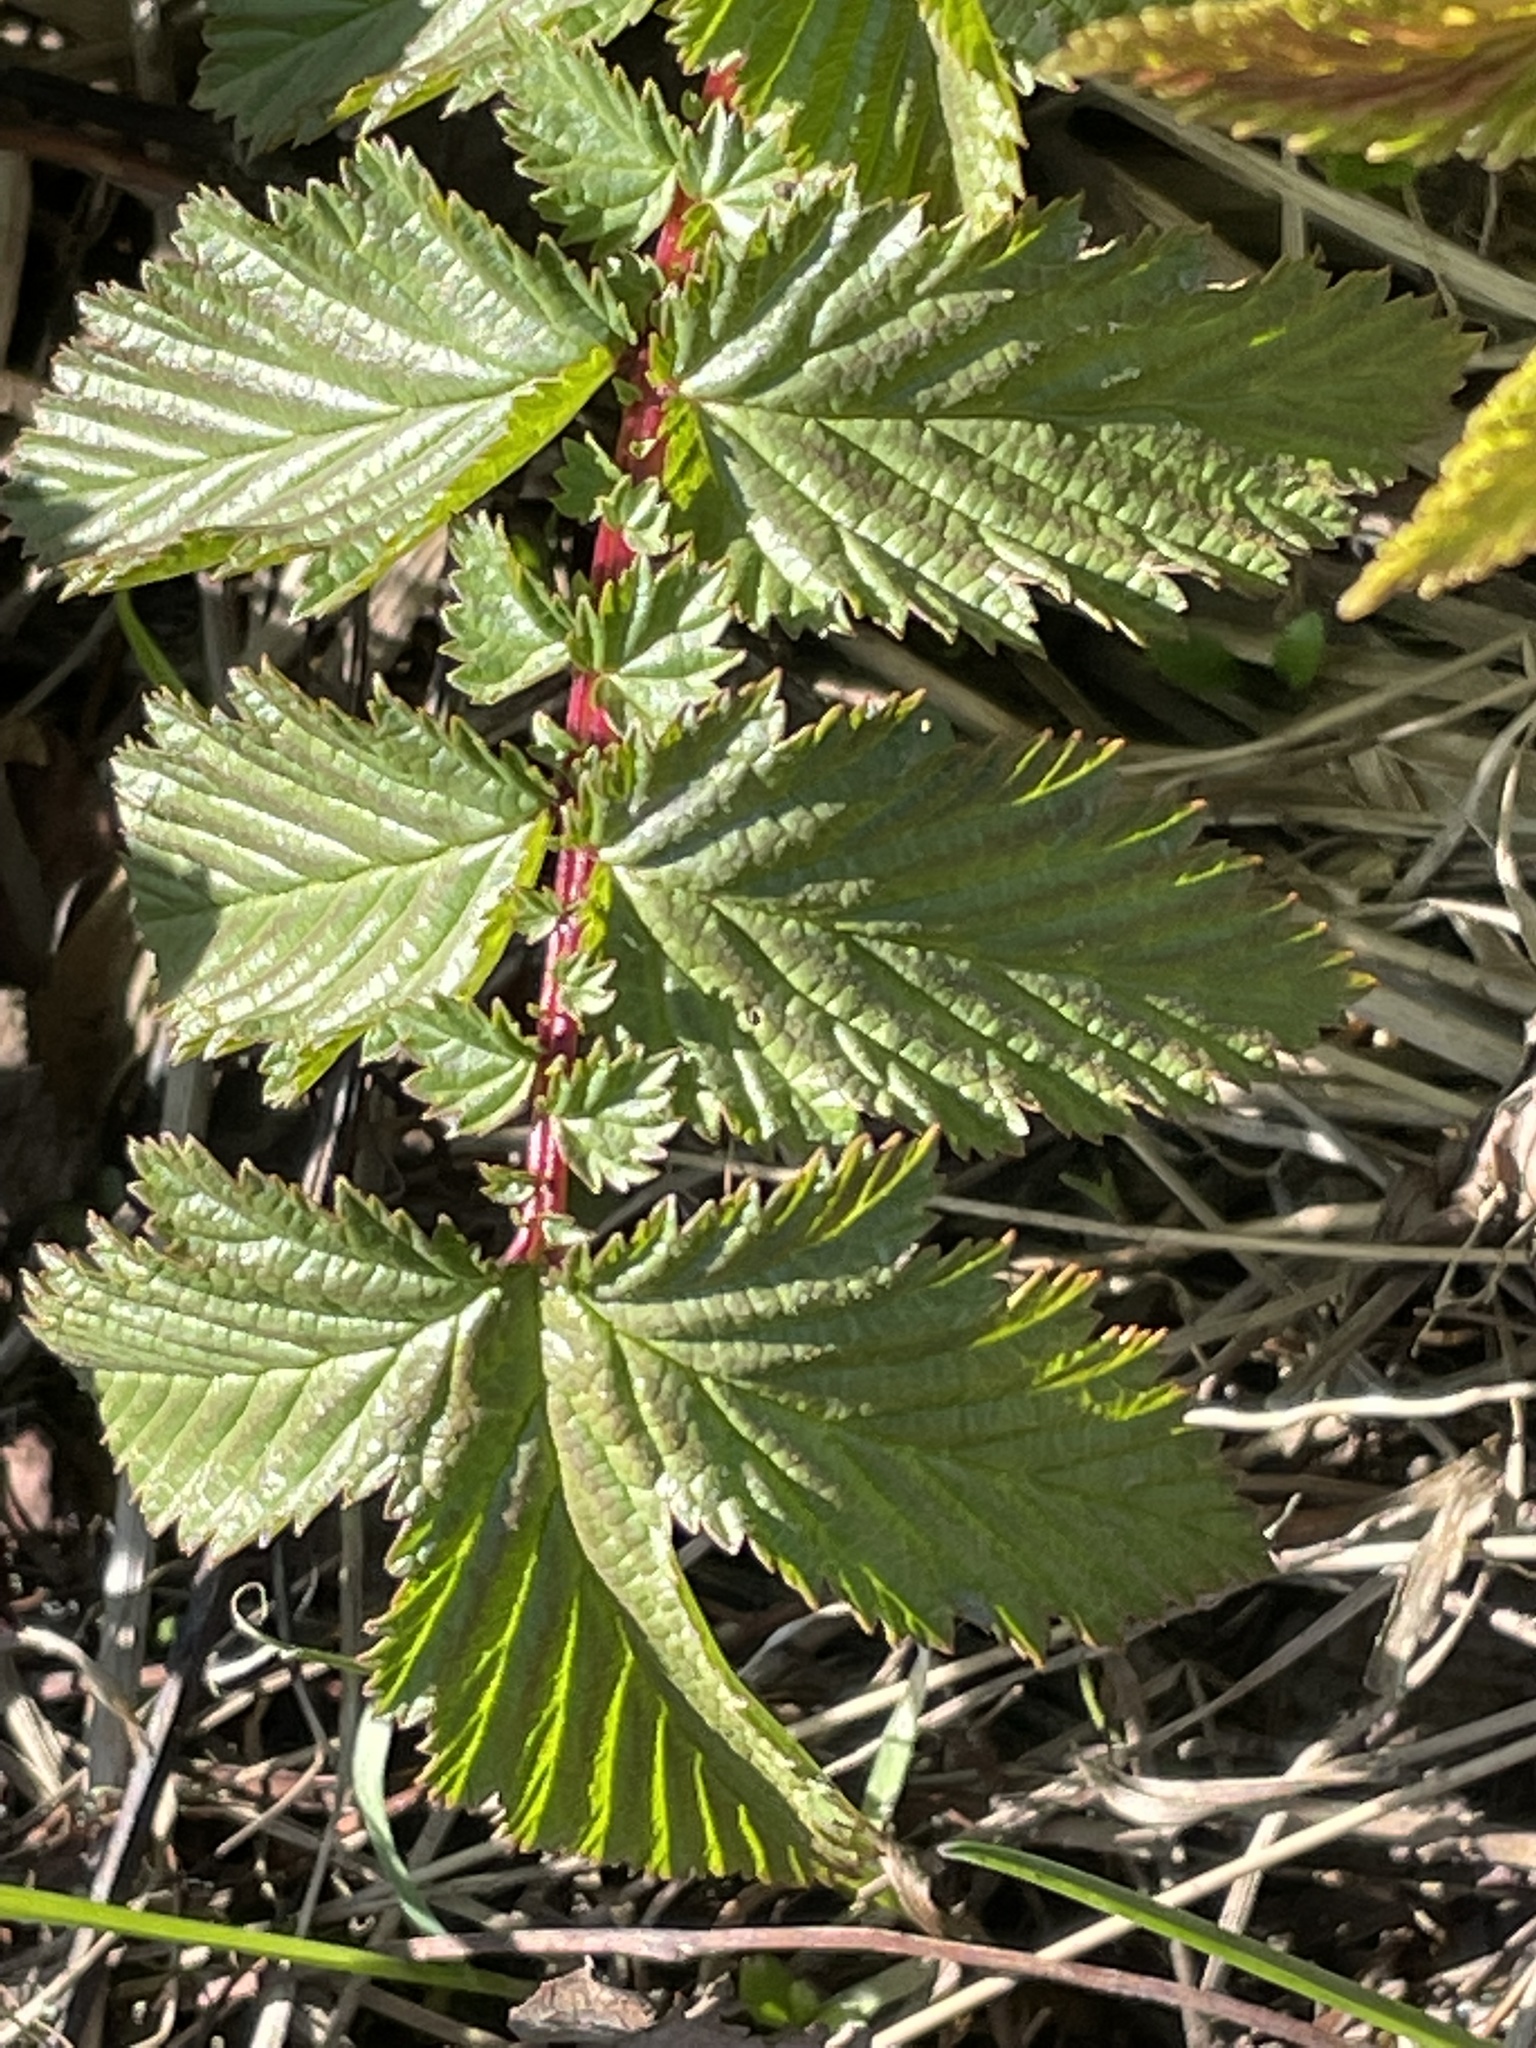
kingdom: Plantae
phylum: Tracheophyta
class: Magnoliopsida
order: Rosales
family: Rosaceae
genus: Filipendula
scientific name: Filipendula ulmaria
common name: Meadowsweet
